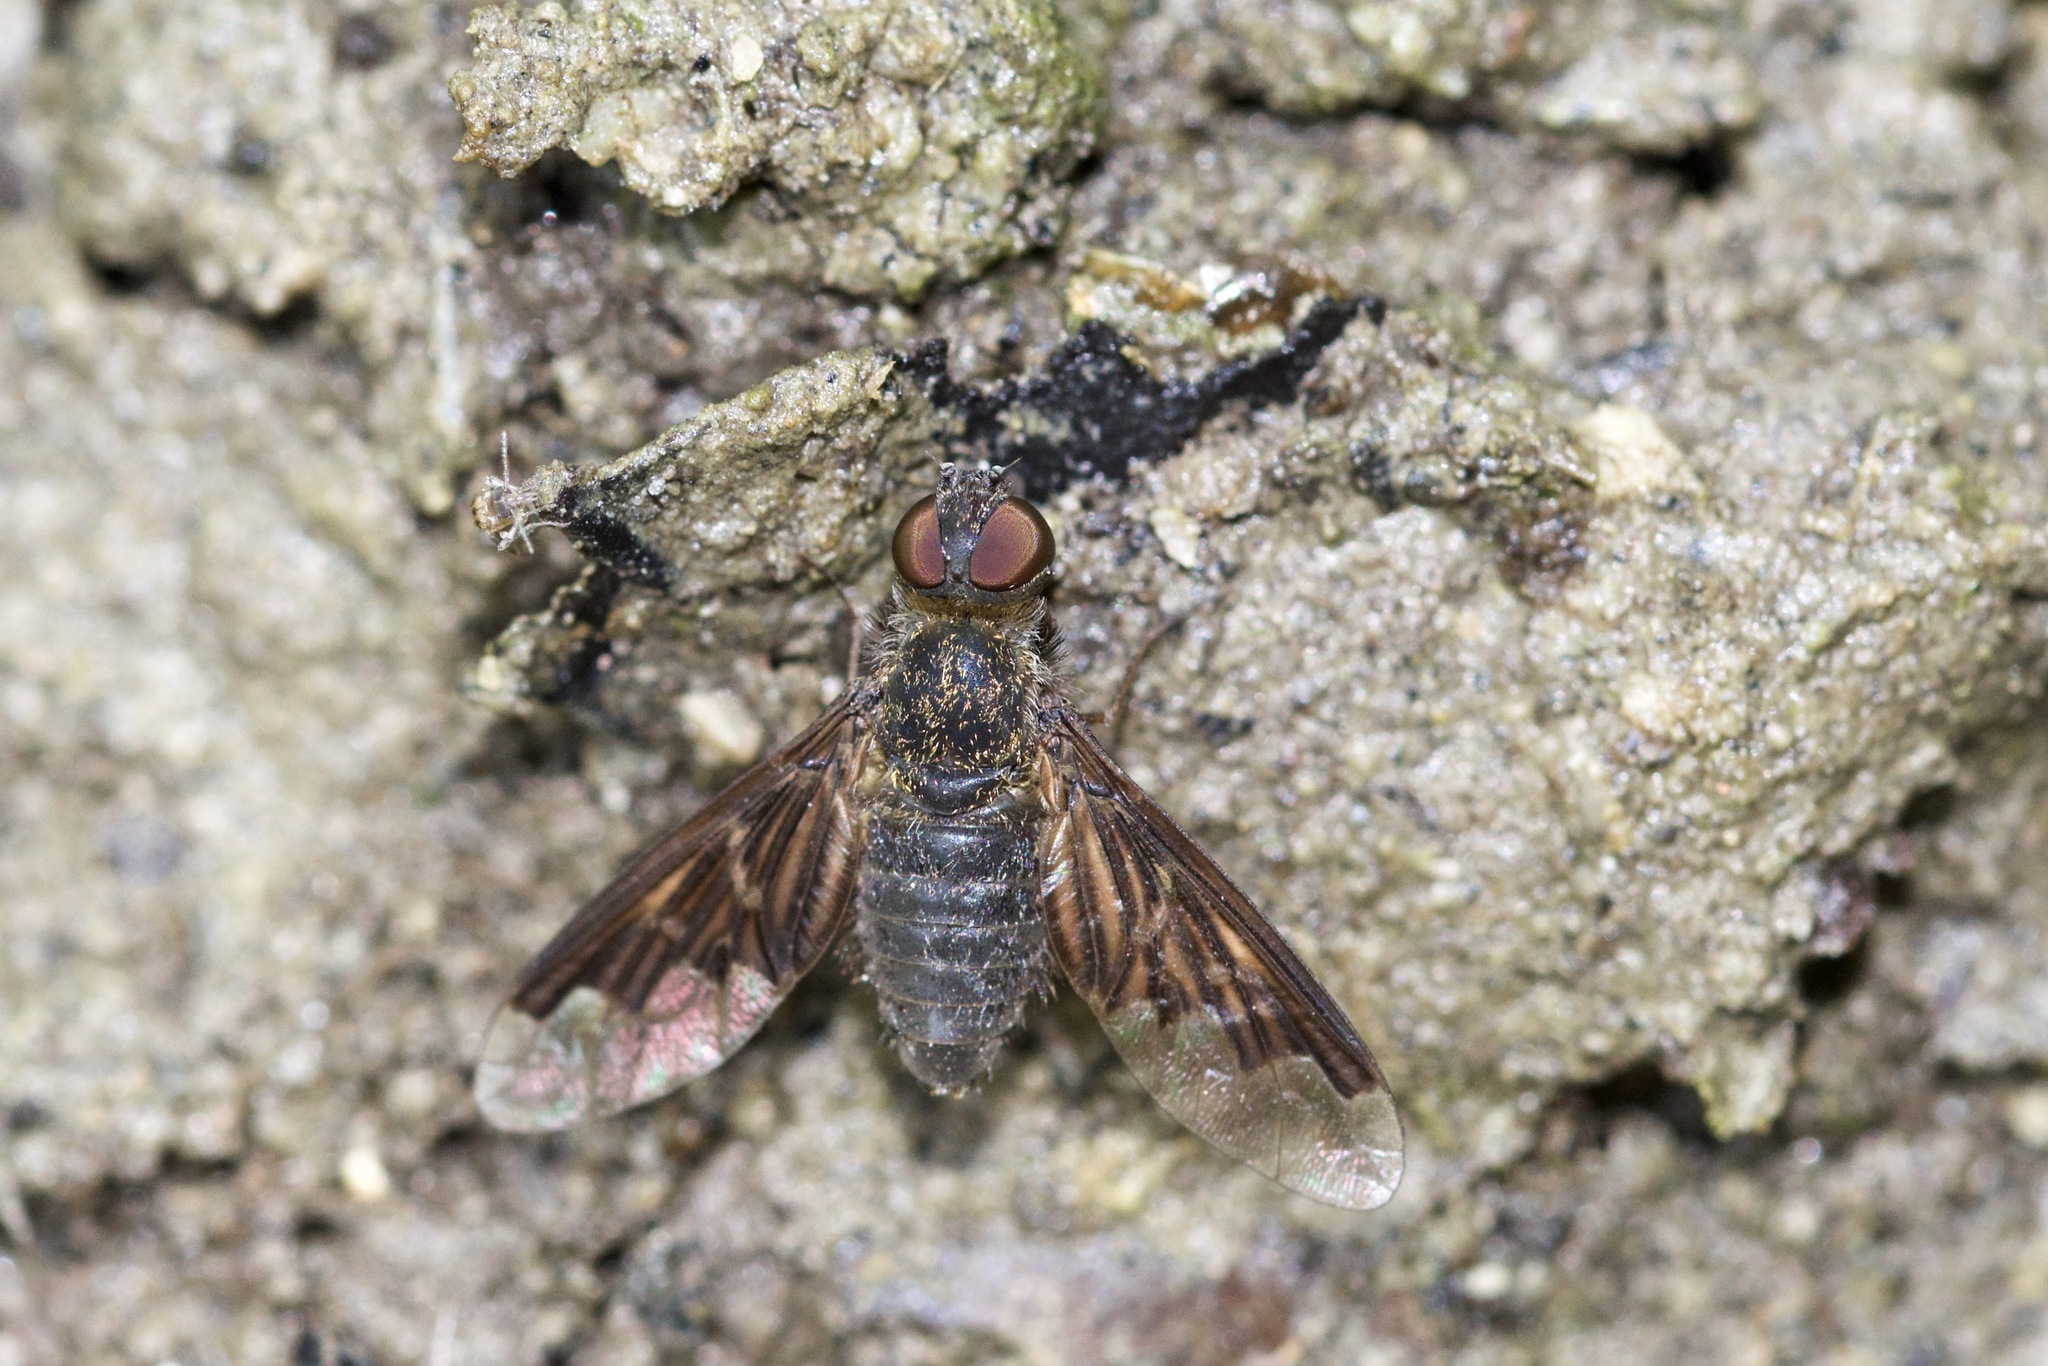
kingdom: Animalia
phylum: Arthropoda
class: Insecta
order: Diptera
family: Bombyliidae
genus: Hemipenthes
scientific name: Hemipenthes
